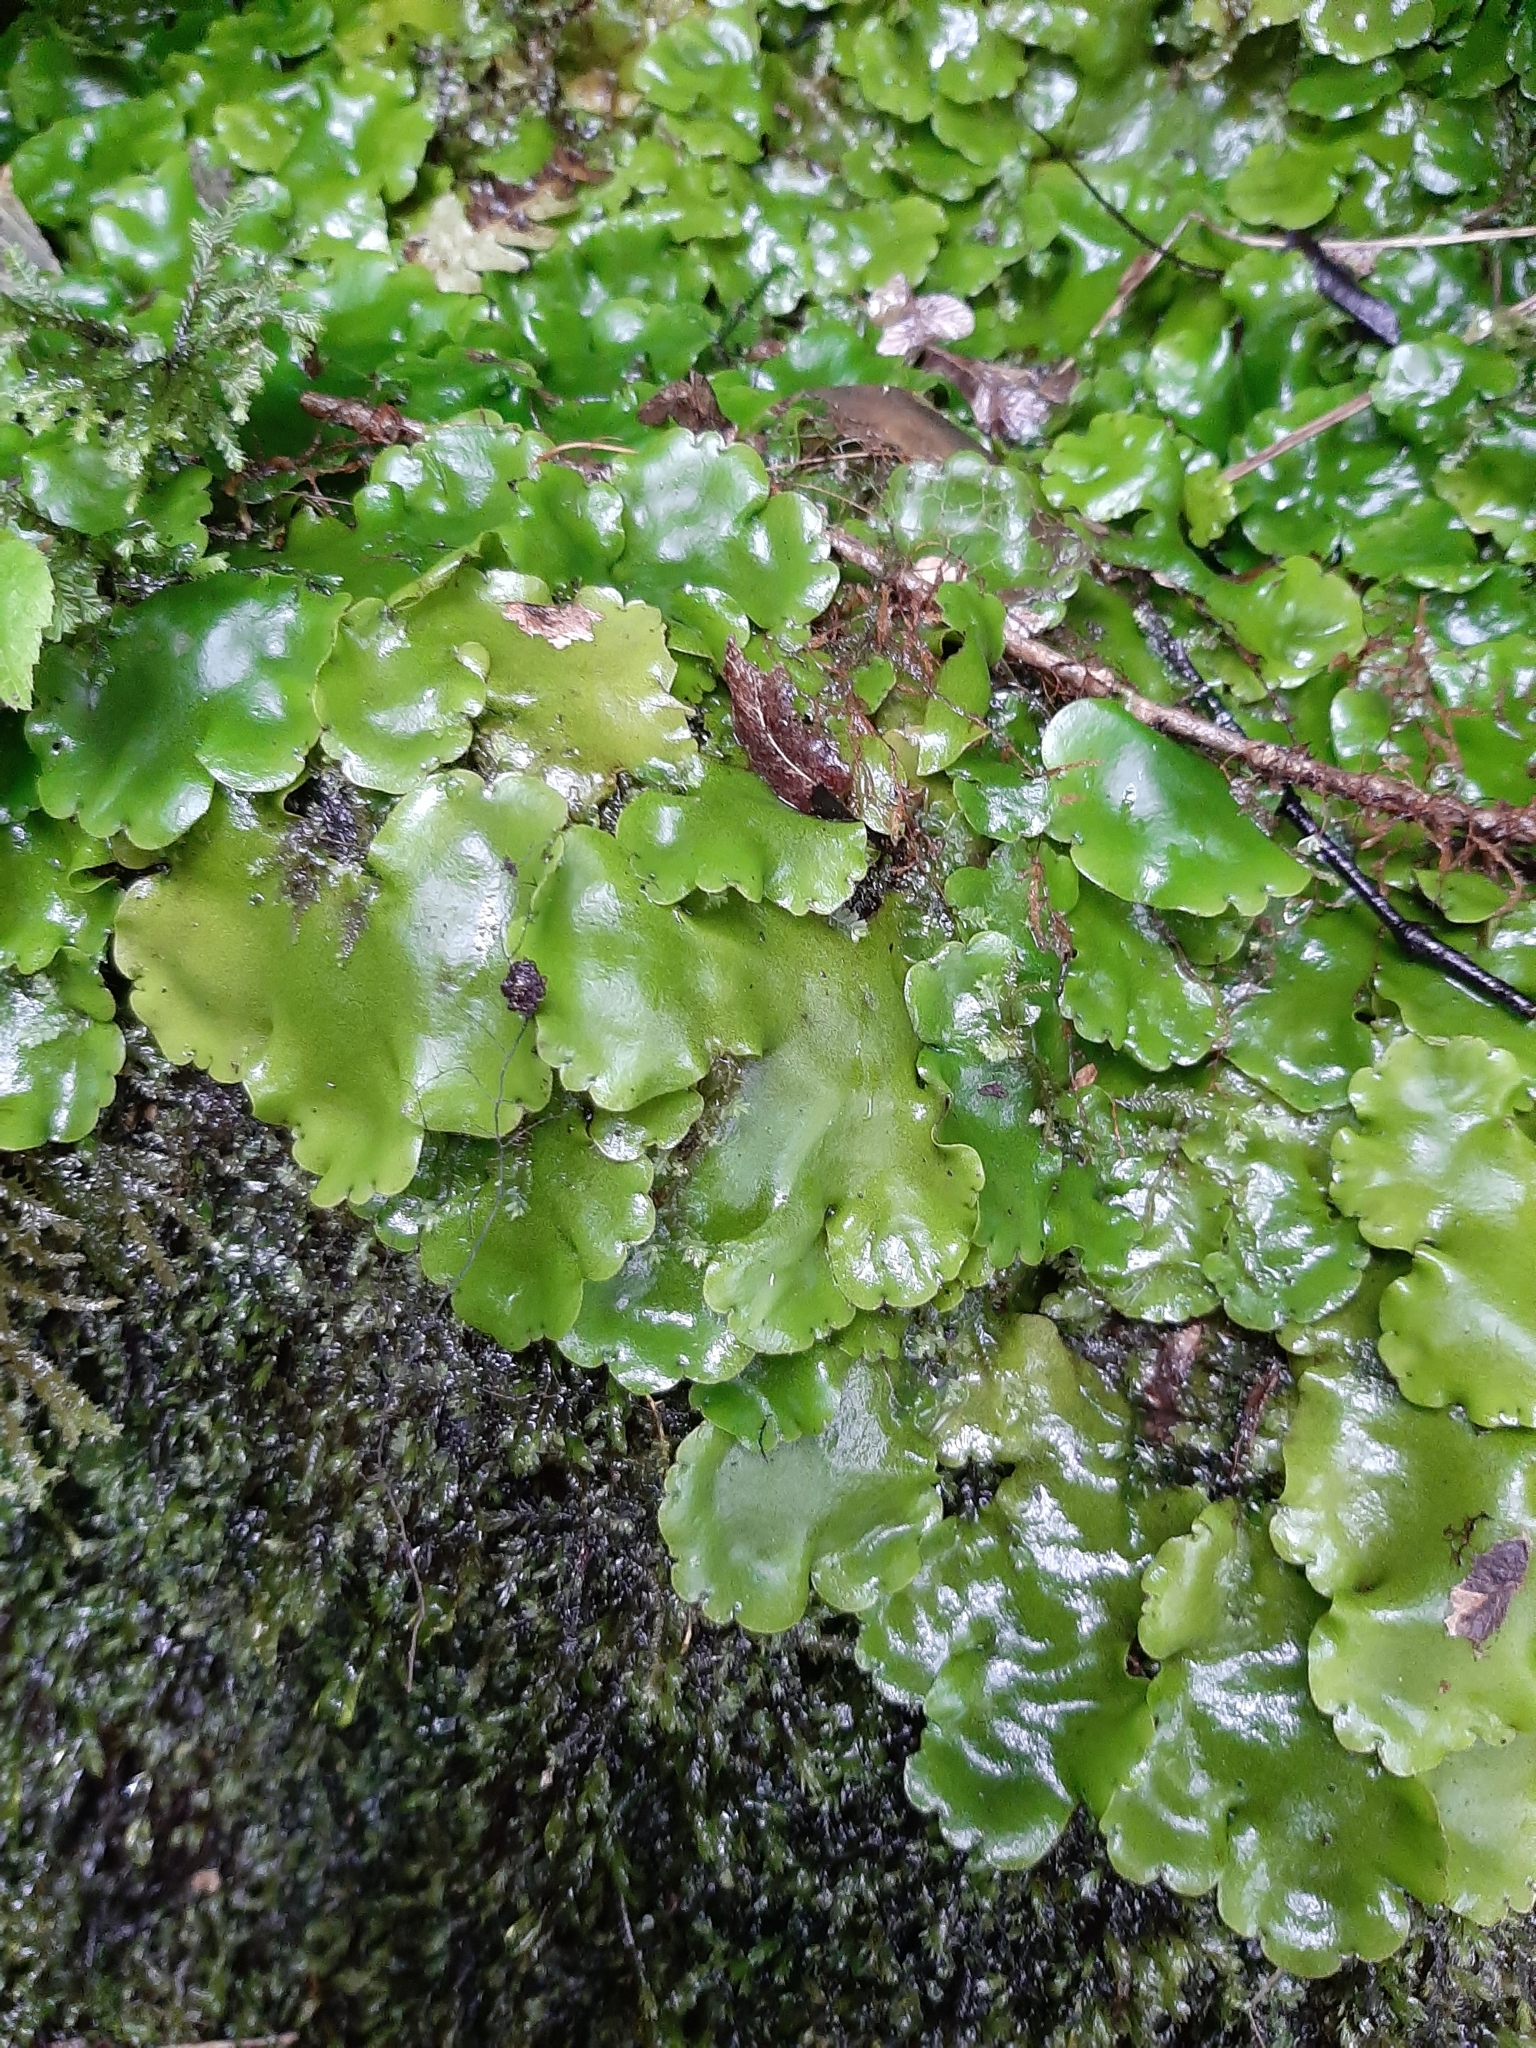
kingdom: Plantae
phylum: Marchantiophyta
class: Marchantiopsida
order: Marchantiales
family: Monocleaceae
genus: Monoclea
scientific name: Monoclea forsteri
